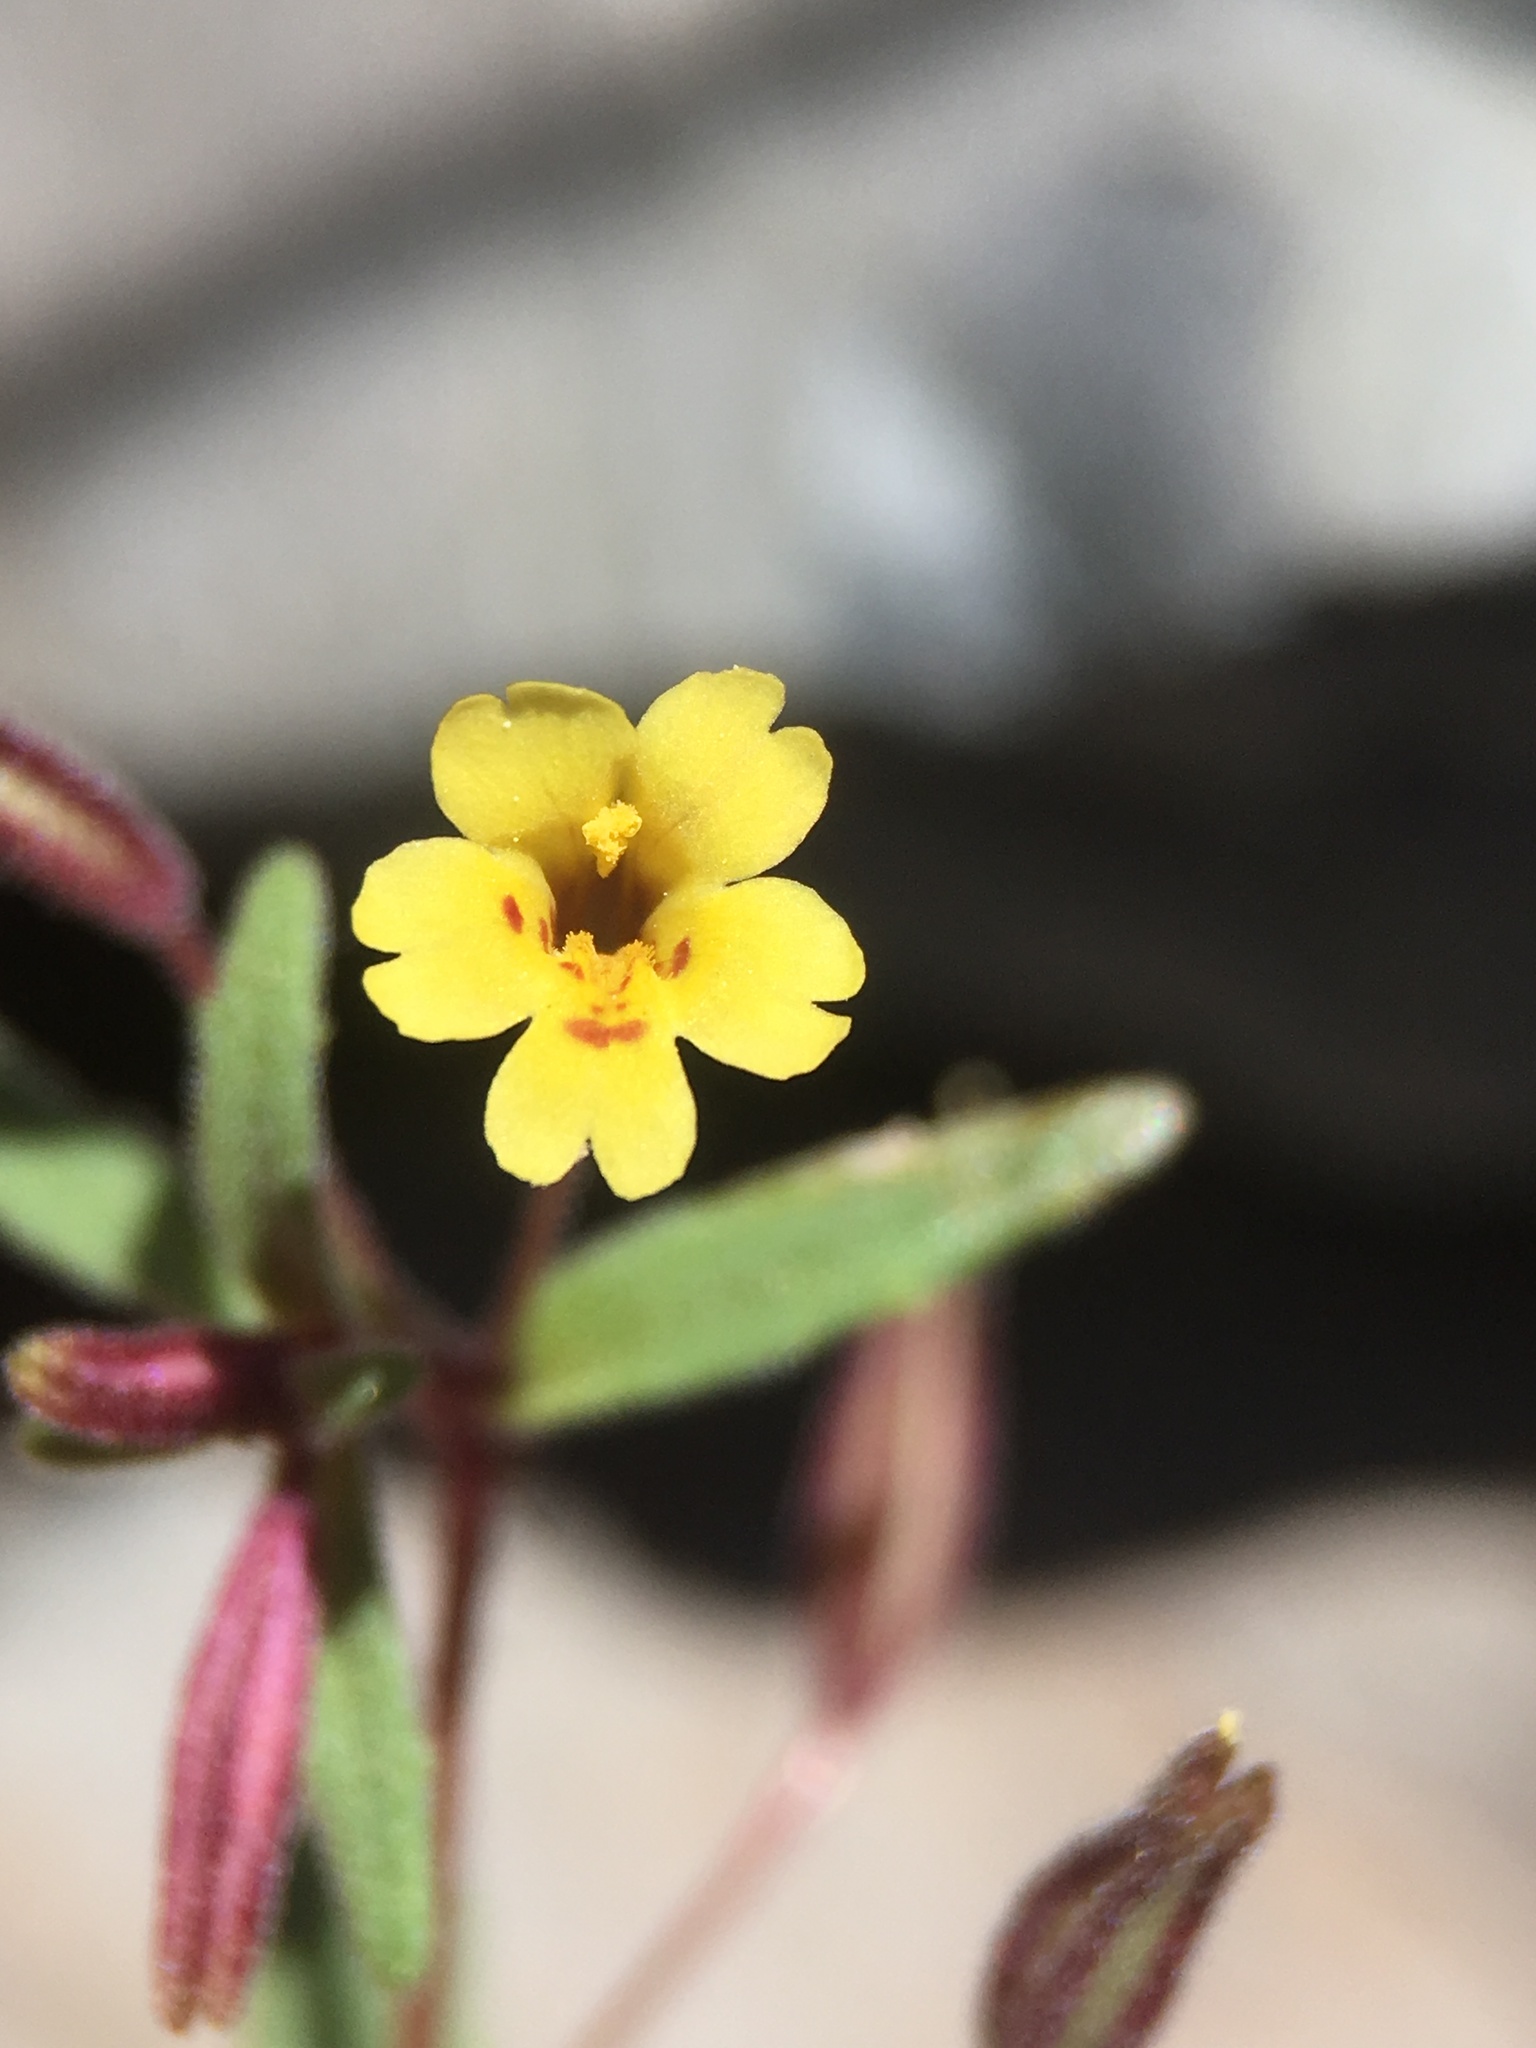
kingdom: Plantae
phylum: Tracheophyta
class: Magnoliopsida
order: Lamiales
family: Phrymaceae
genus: Erythranthe
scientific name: Erythranthe rubella
